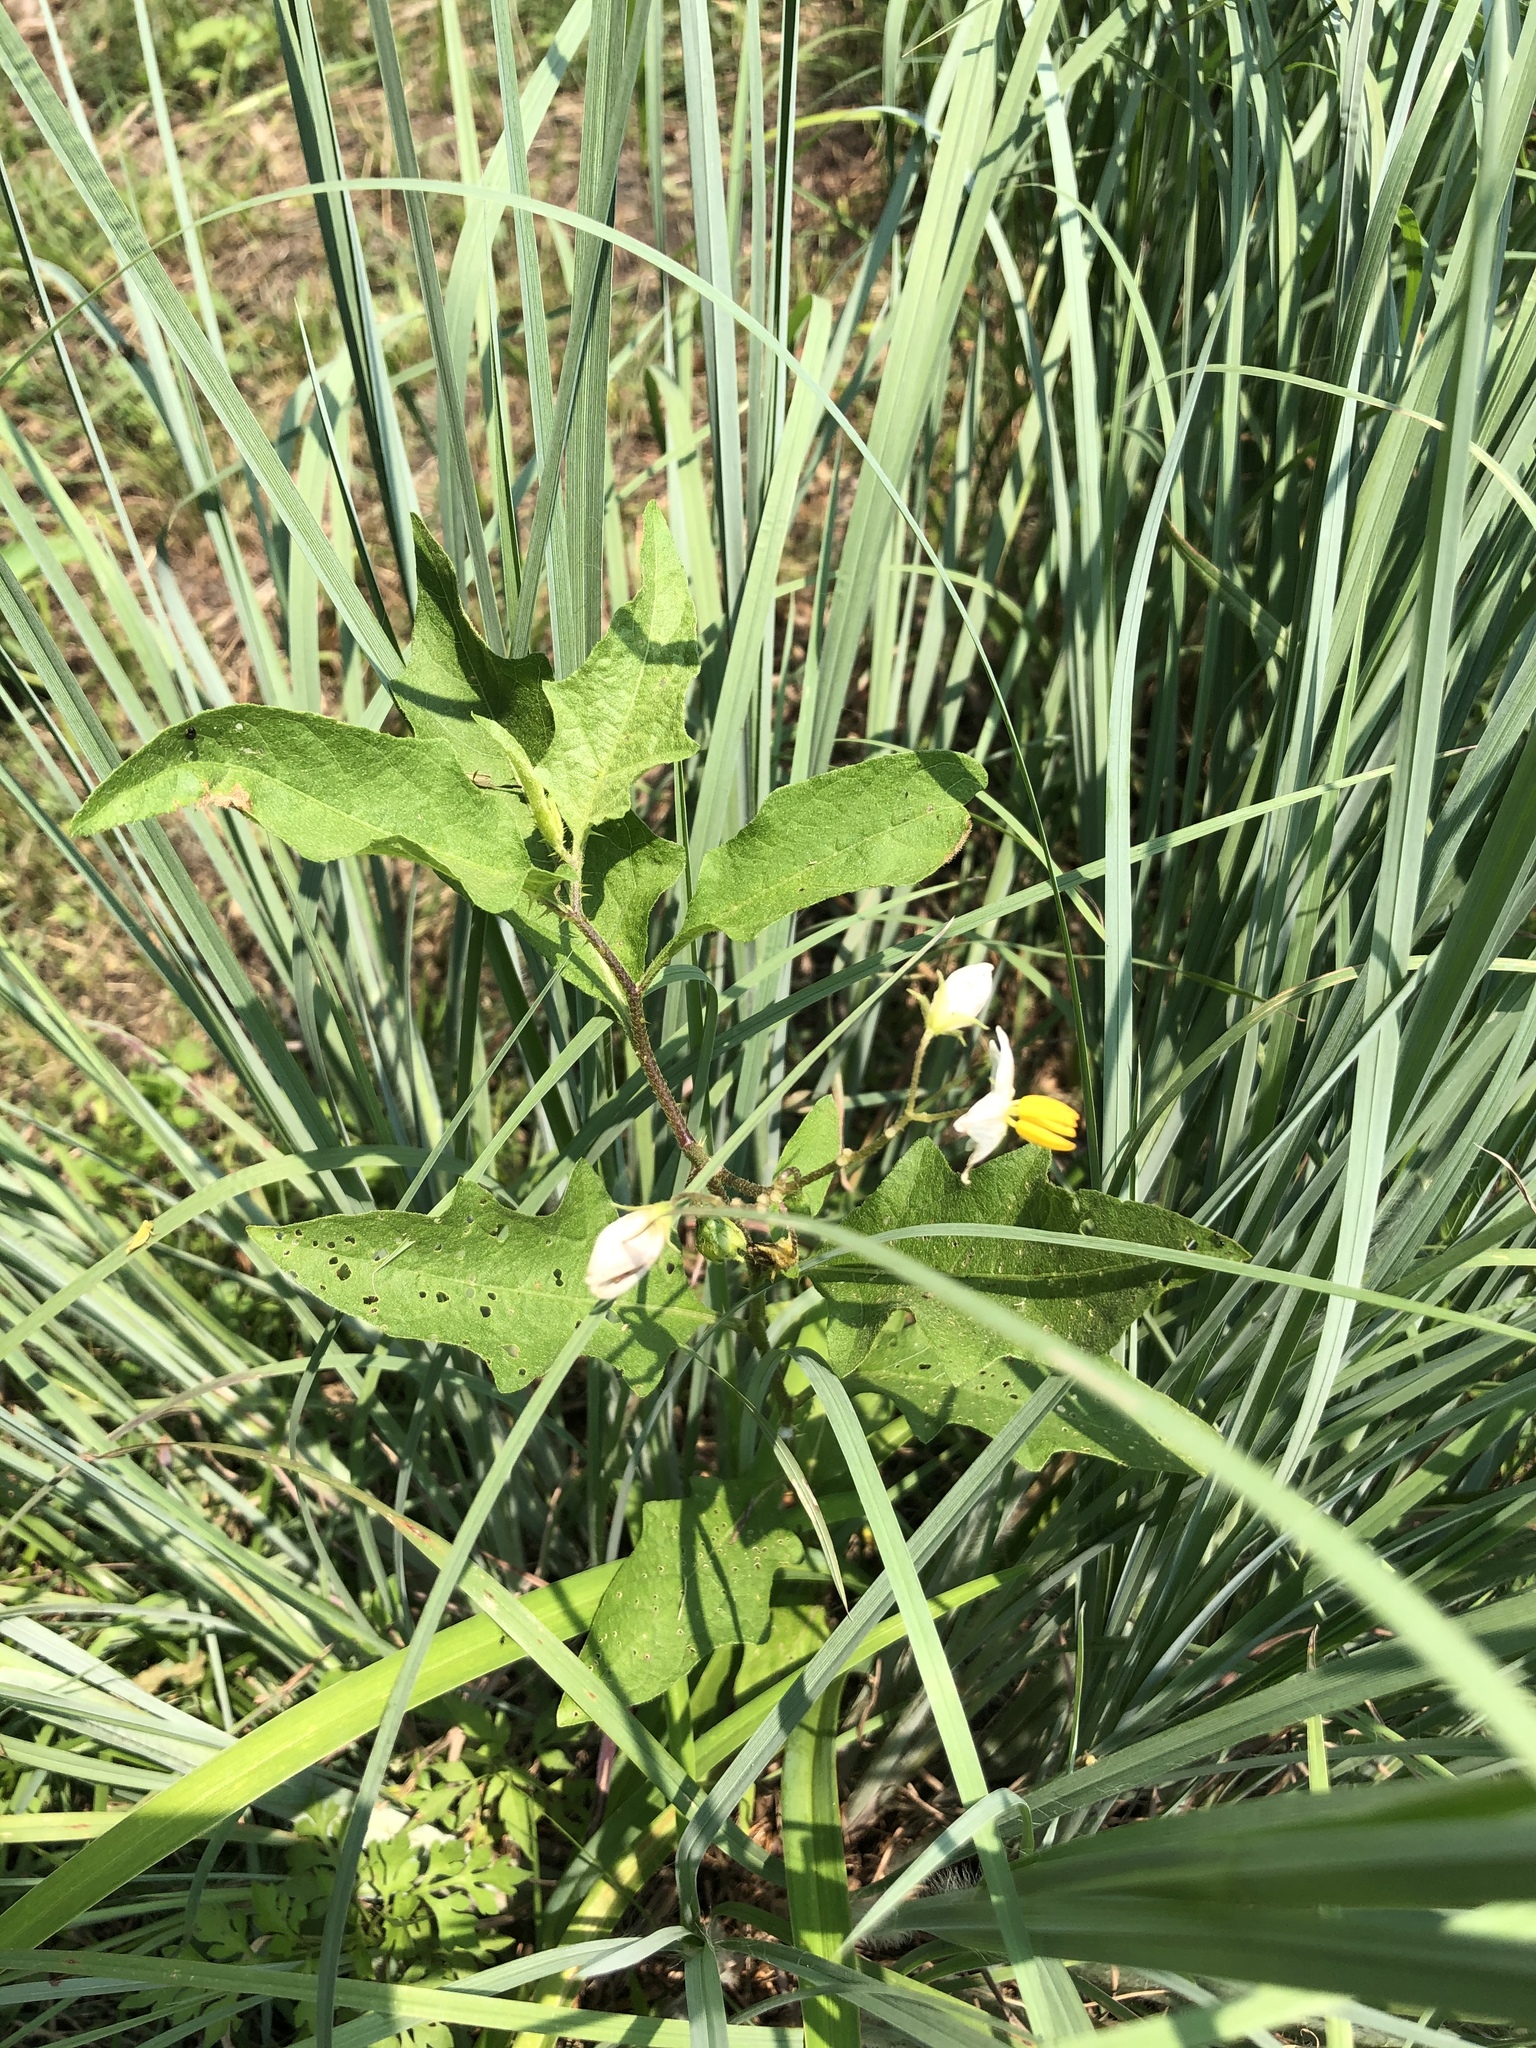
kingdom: Plantae
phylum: Tracheophyta
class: Magnoliopsida
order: Solanales
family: Solanaceae
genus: Solanum
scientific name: Solanum carolinense
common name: Horse-nettle
